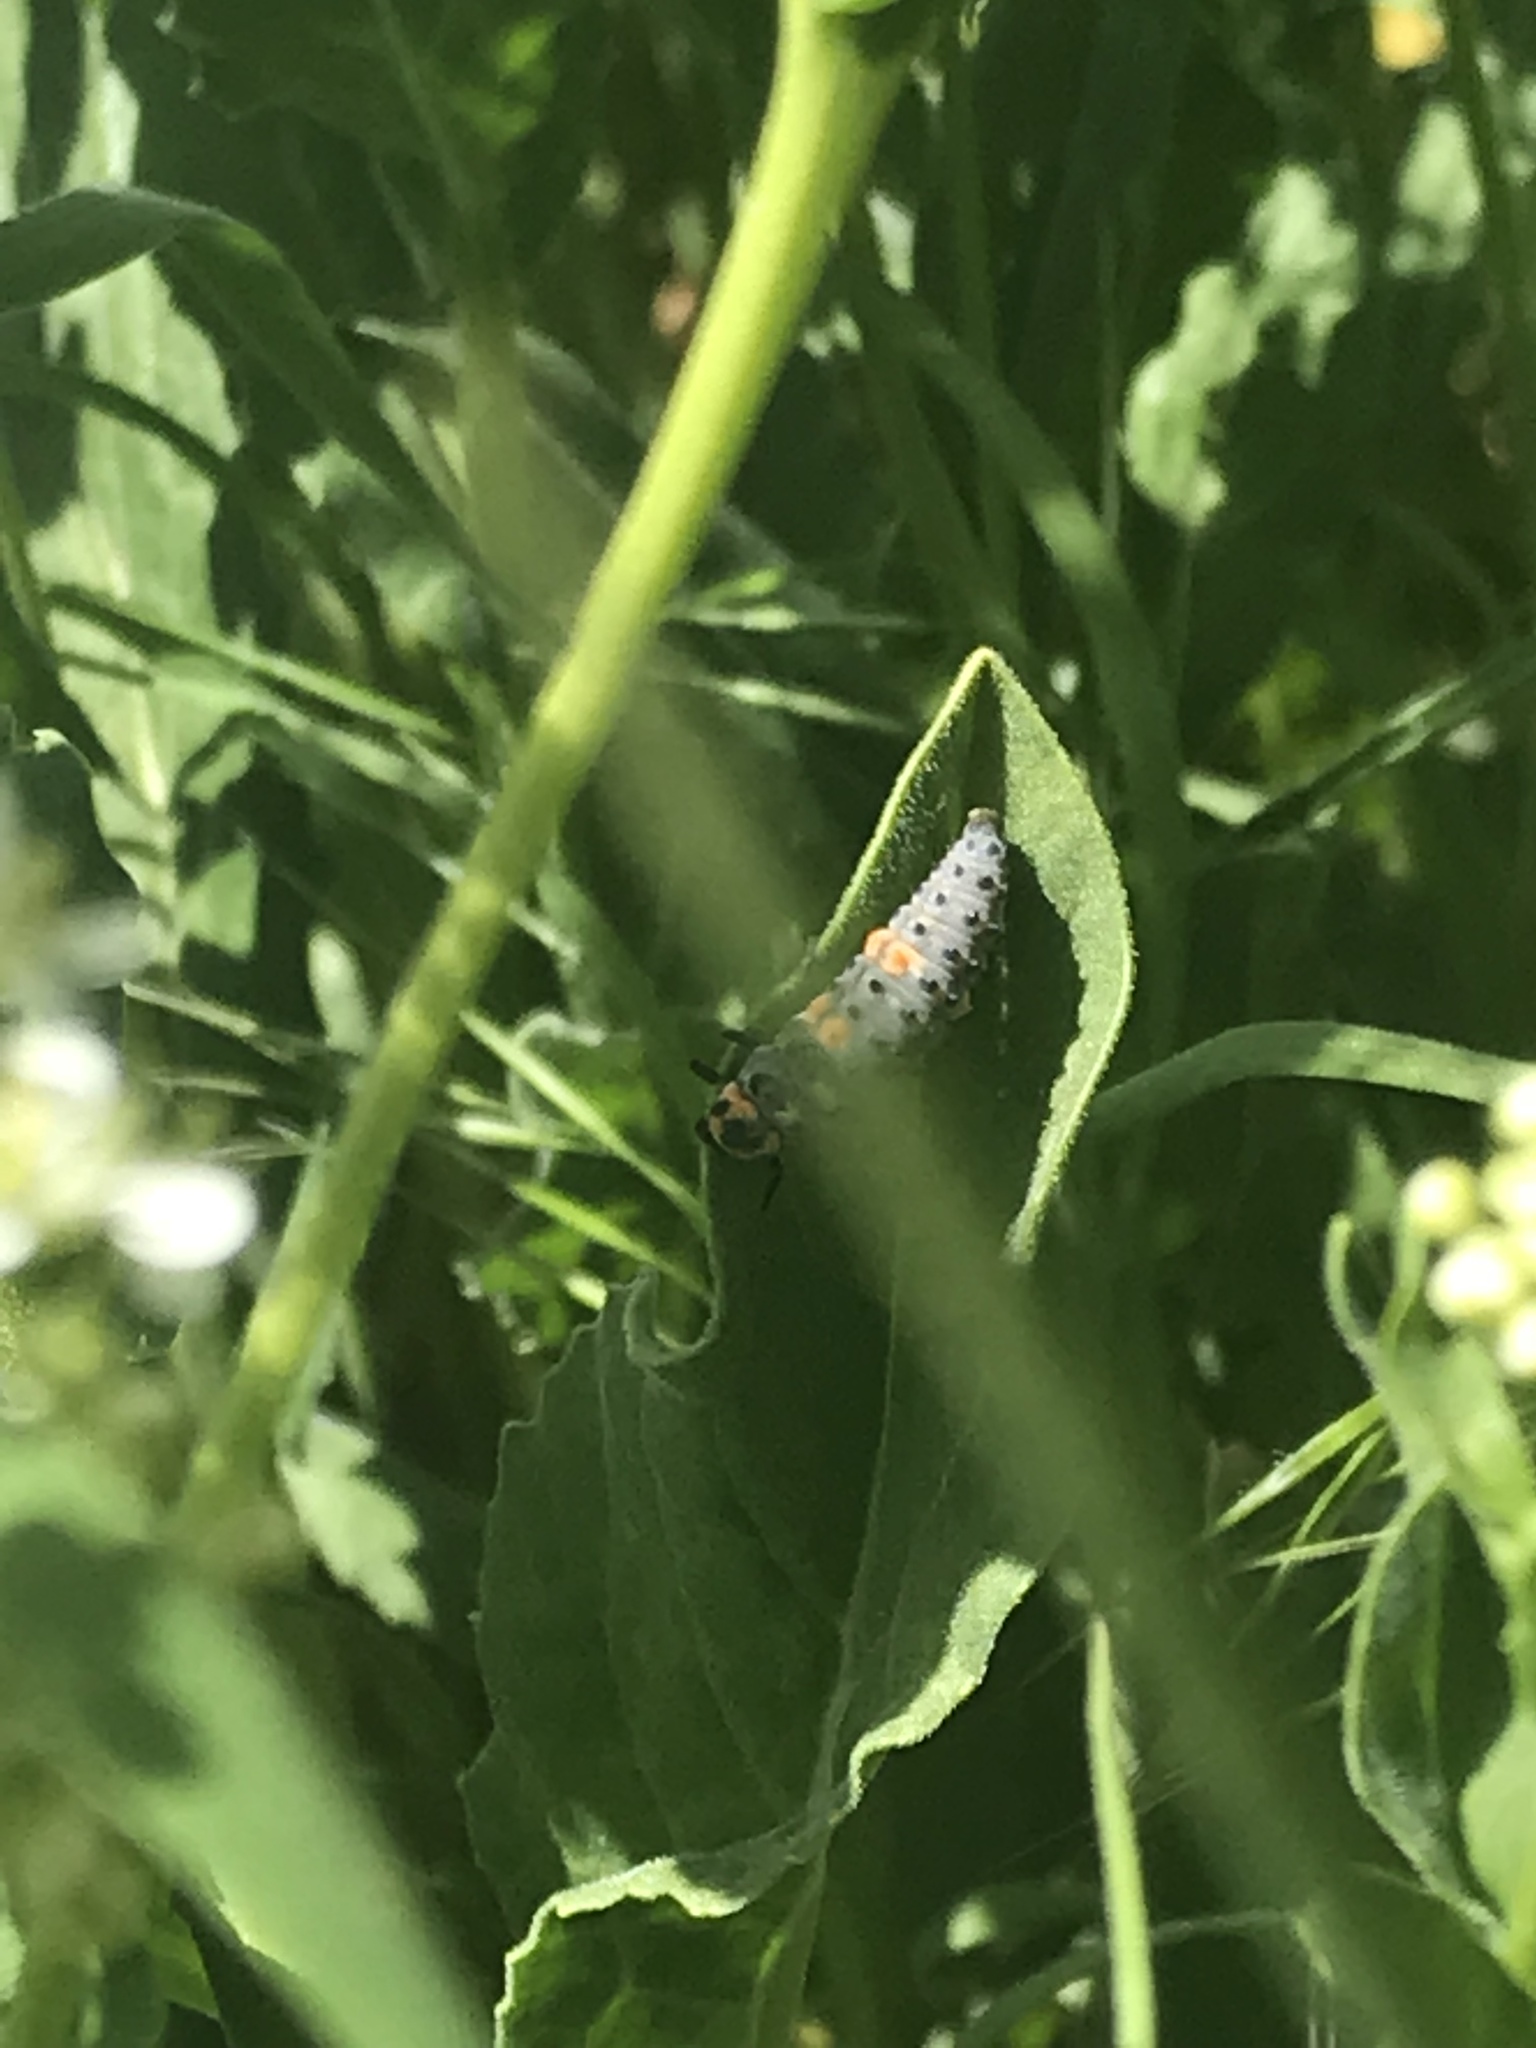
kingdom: Animalia
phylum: Arthropoda
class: Insecta
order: Coleoptera
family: Coccinellidae
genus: Coccinella
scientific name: Coccinella septempunctata
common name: Sevenspotted lady beetle
